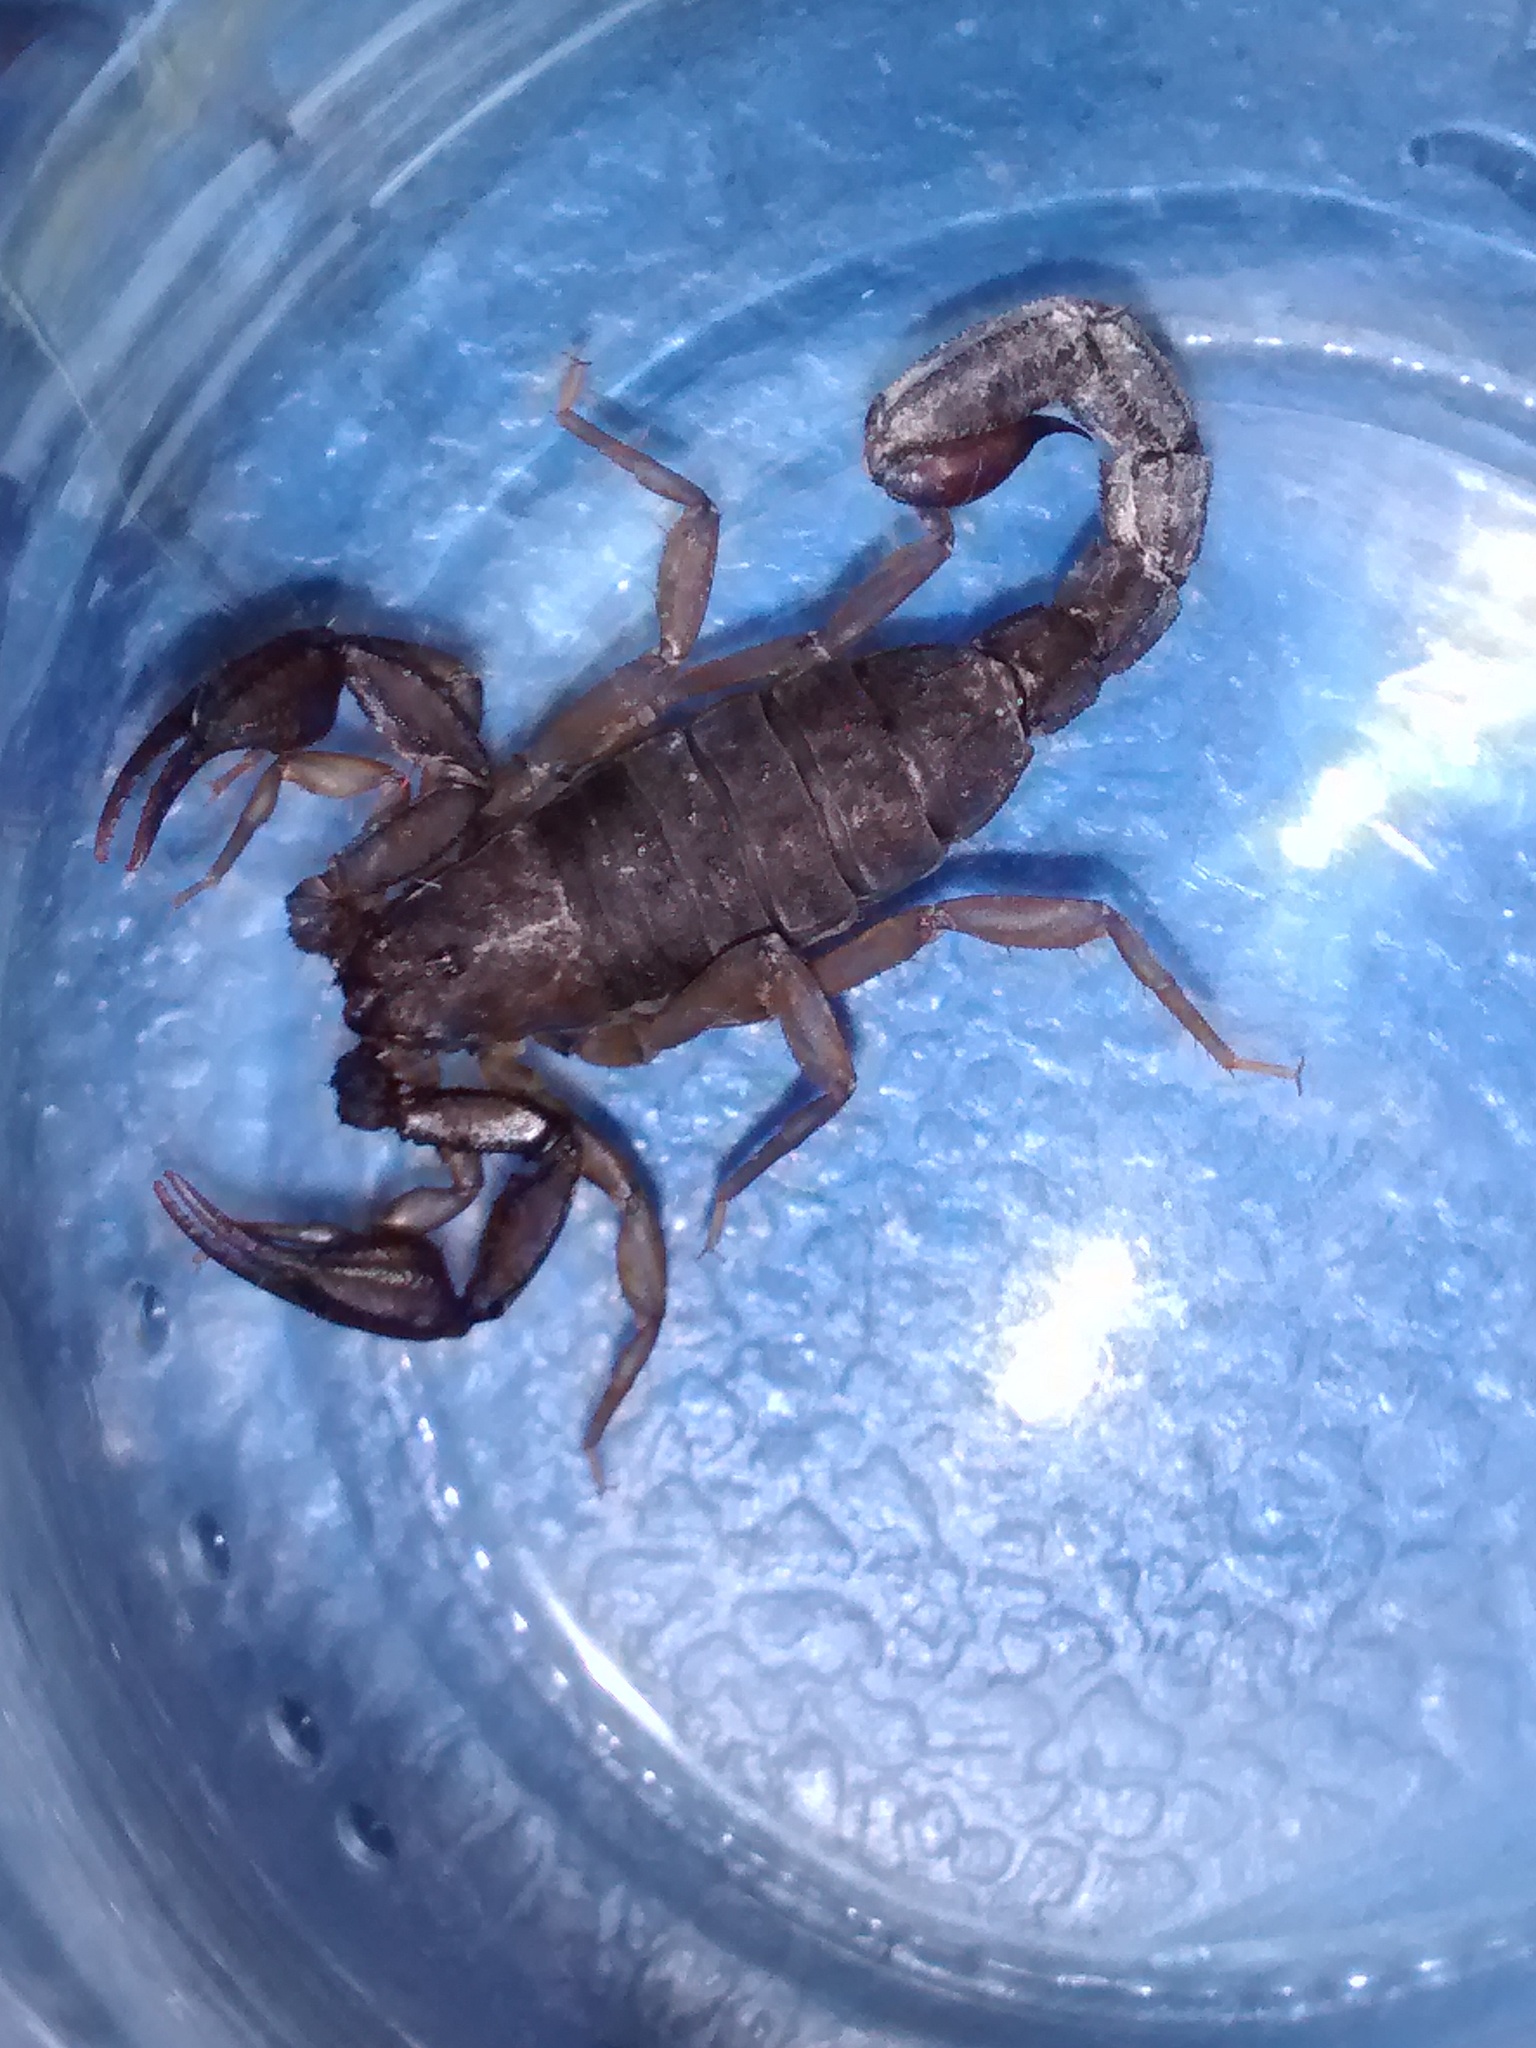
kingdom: Animalia
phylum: Arthropoda
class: Arachnida
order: Scorpiones
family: Vaejovidae
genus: Vaejovis
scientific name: Vaejovis mexicanus
